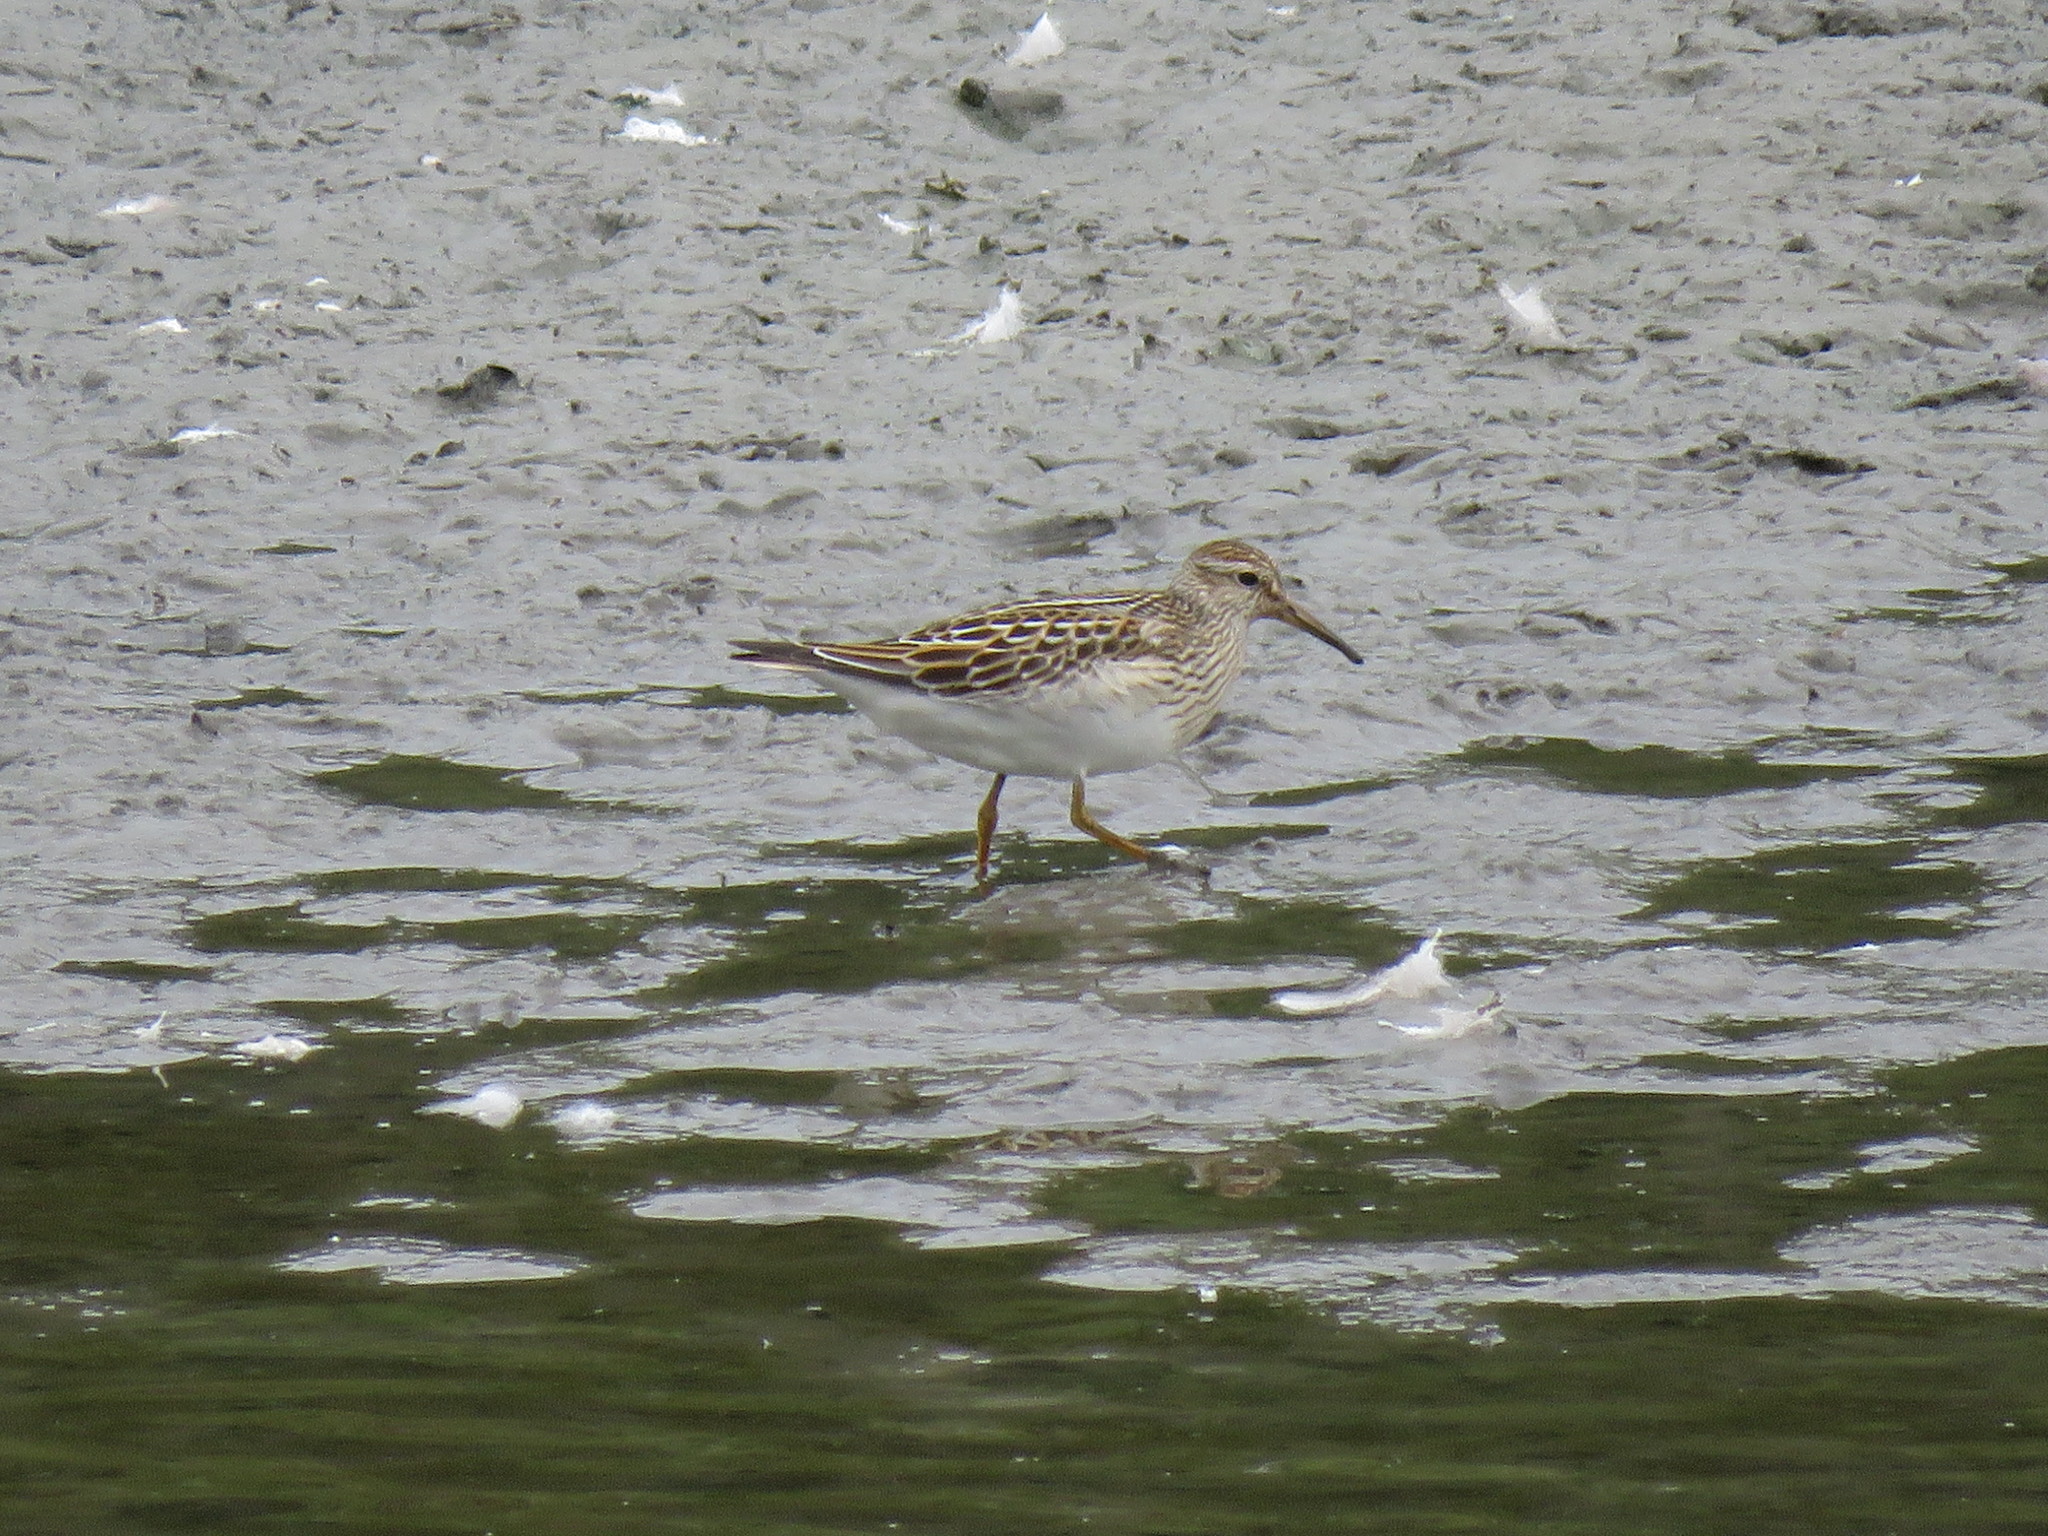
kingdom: Animalia
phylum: Chordata
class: Aves
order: Charadriiformes
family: Scolopacidae
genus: Calidris
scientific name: Calidris melanotos
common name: Pectoral sandpiper
